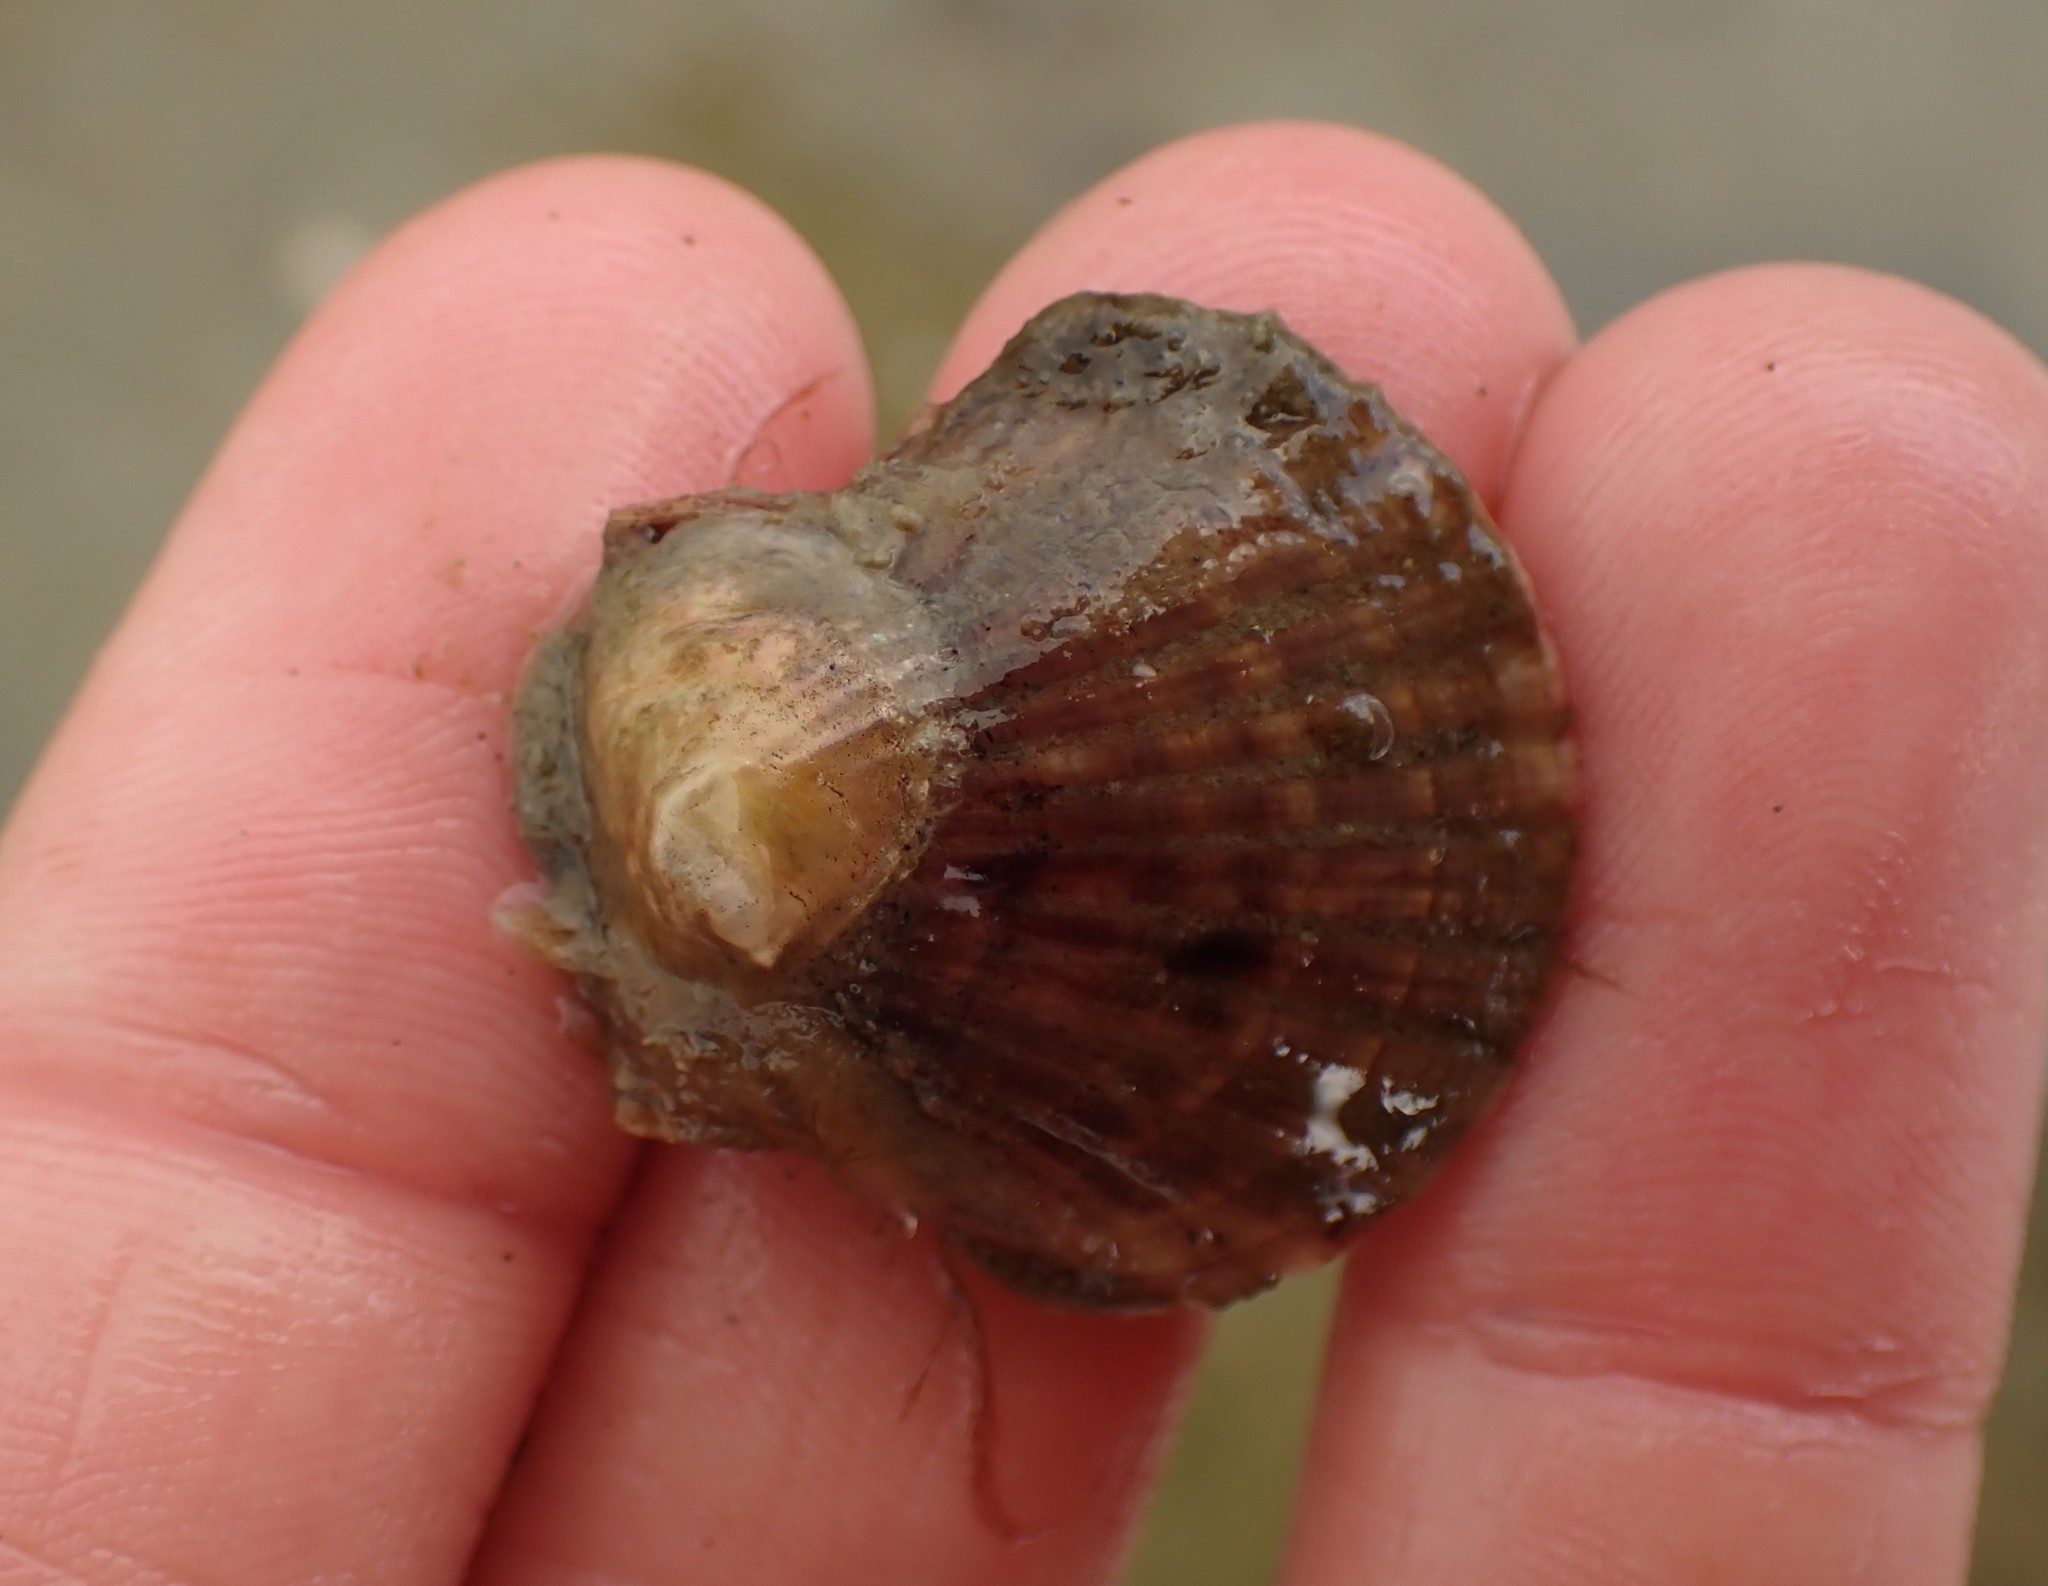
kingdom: Animalia
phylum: Mollusca
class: Bivalvia
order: Pectinida
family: Pectinidae
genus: Pecten
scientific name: Pecten novaezelandiae
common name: New zealand scallop
